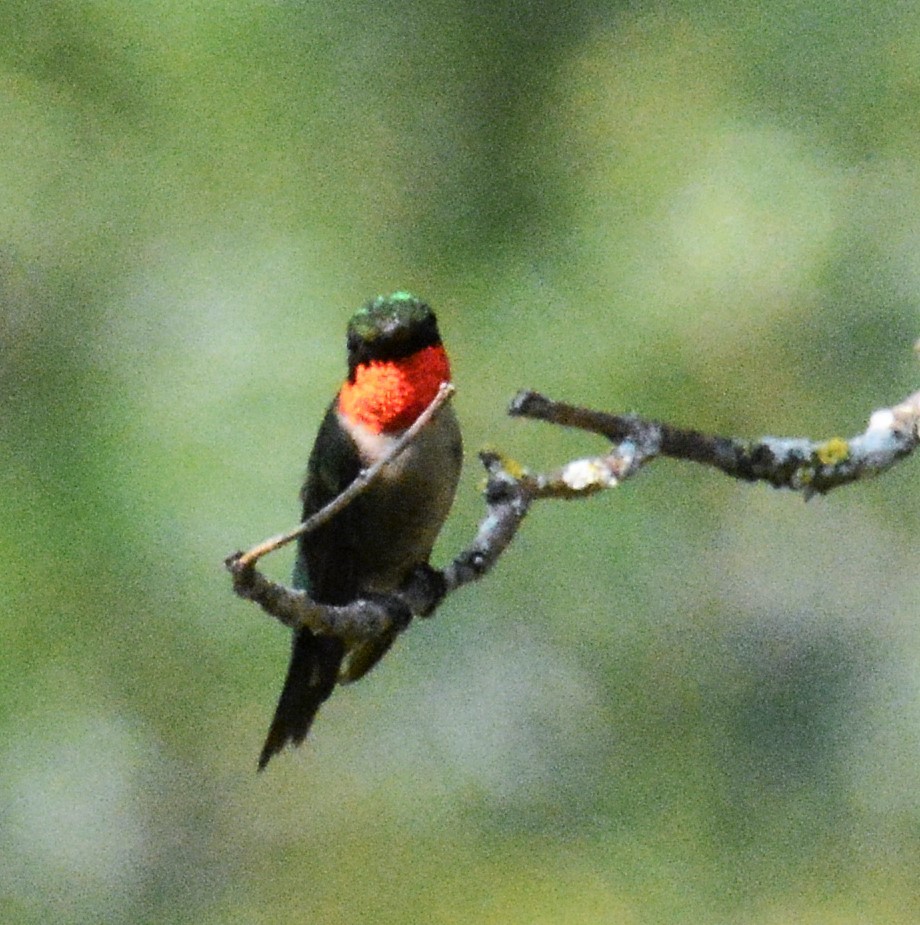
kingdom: Animalia
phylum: Chordata
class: Aves
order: Apodiformes
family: Trochilidae
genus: Archilochus
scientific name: Archilochus colubris
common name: Ruby-throated hummingbird
